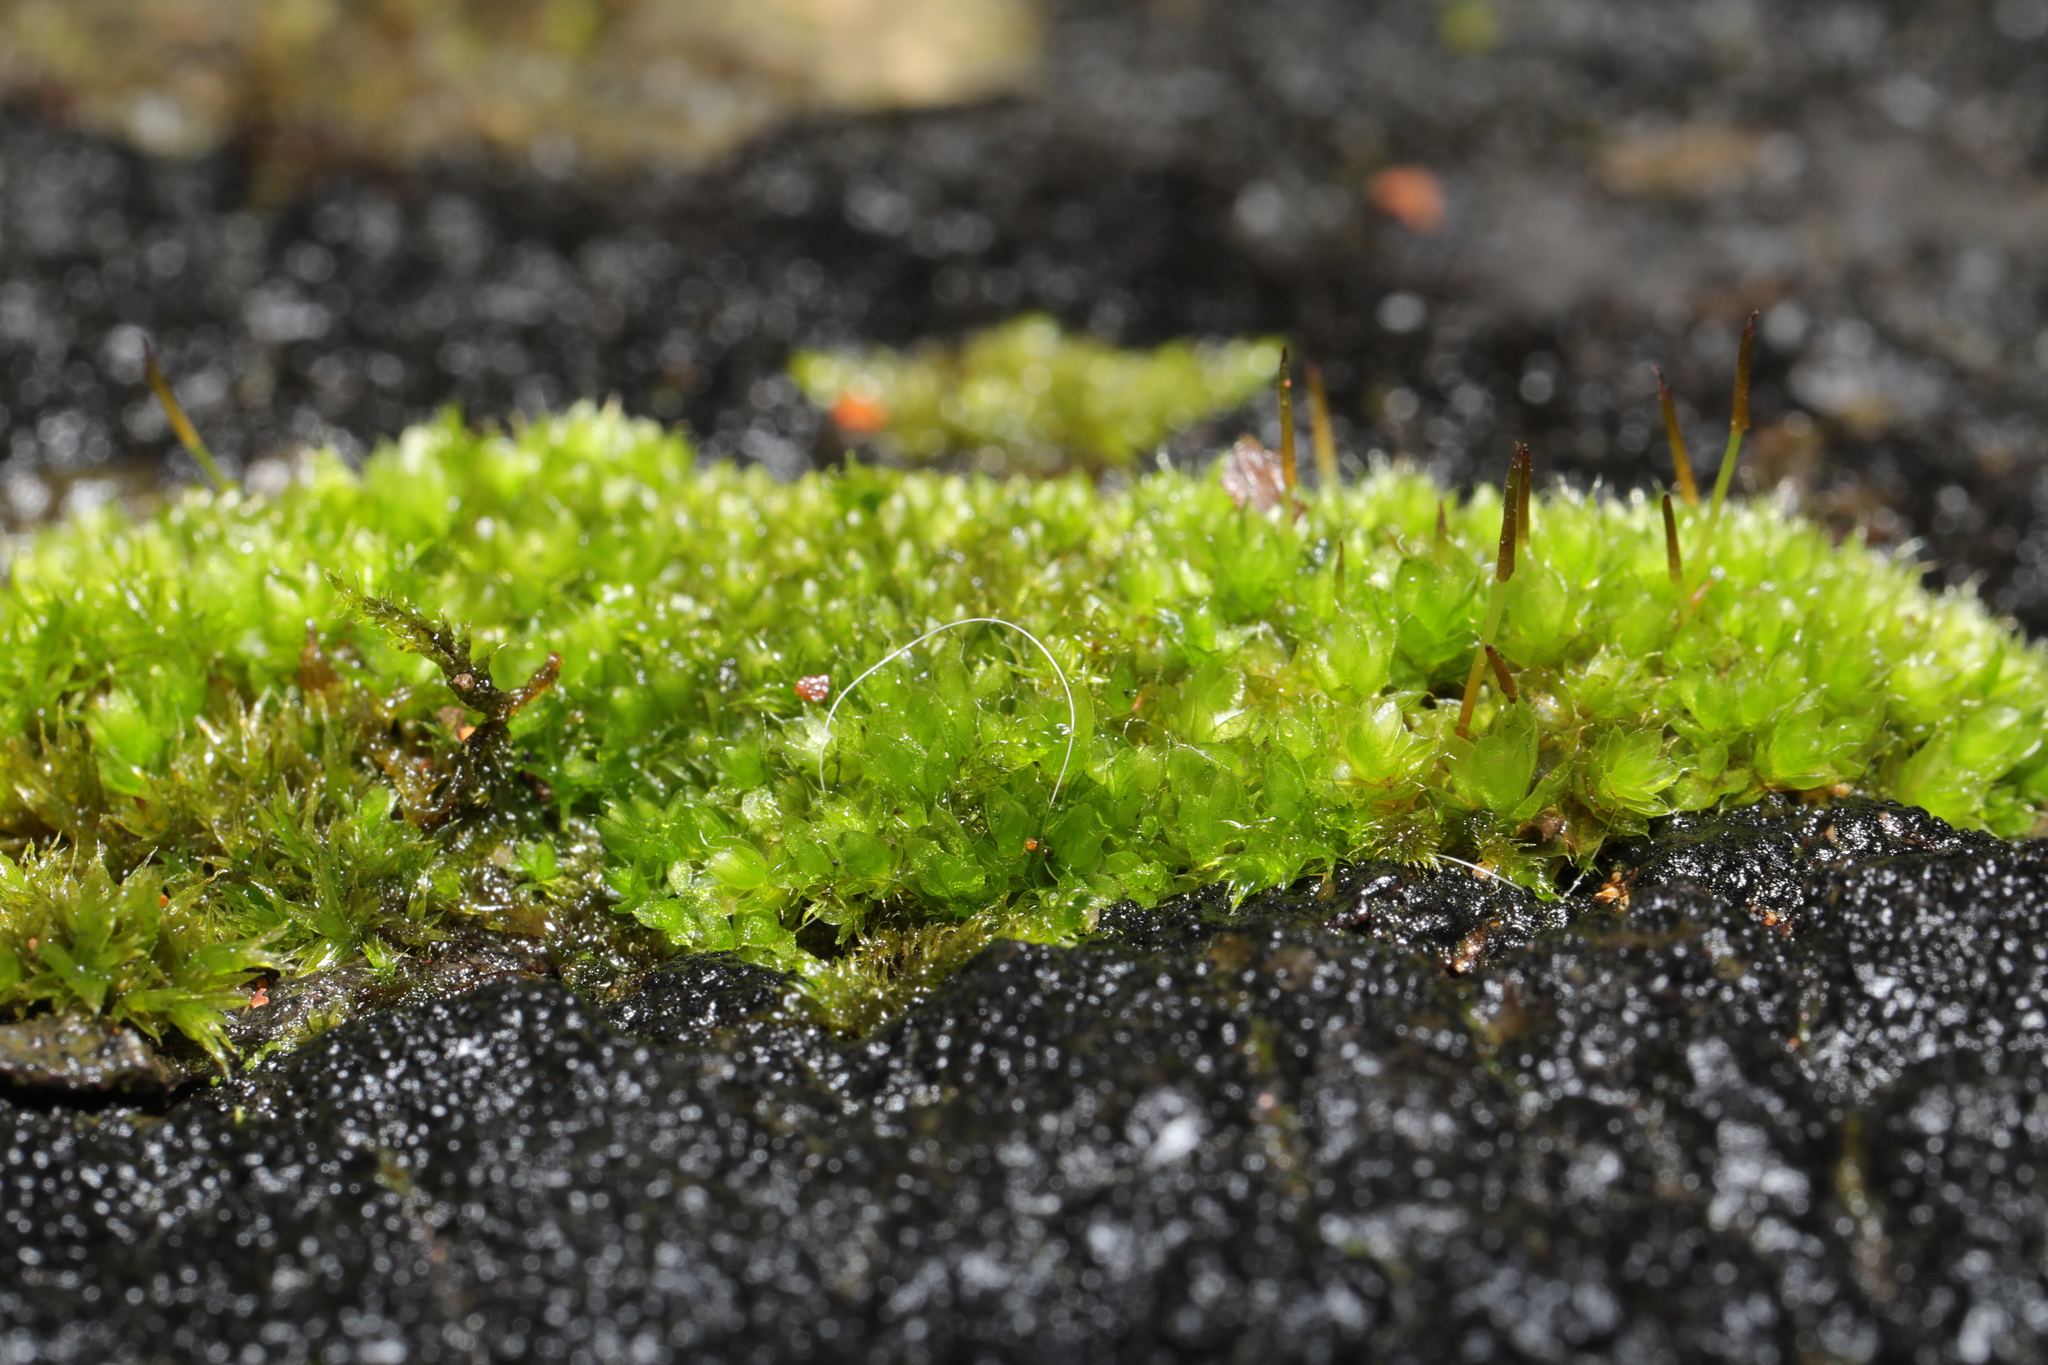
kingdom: Plantae
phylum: Bryophyta
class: Bryopsida
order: Bryales
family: Bryaceae
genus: Rosulabryum
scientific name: Rosulabryum capillare
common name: Capillary thread-moss
